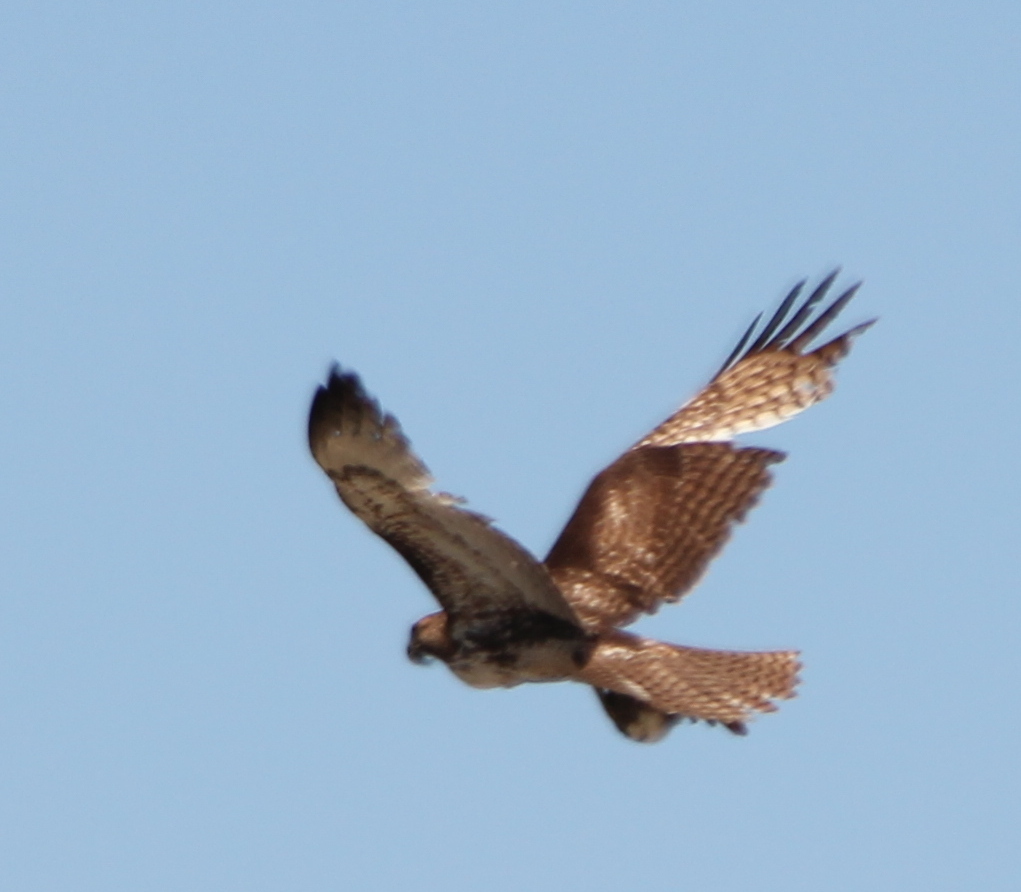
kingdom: Animalia
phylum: Chordata
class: Aves
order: Accipitriformes
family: Accipitridae
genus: Buteo
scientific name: Buteo jamaicensis
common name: Red-tailed hawk
